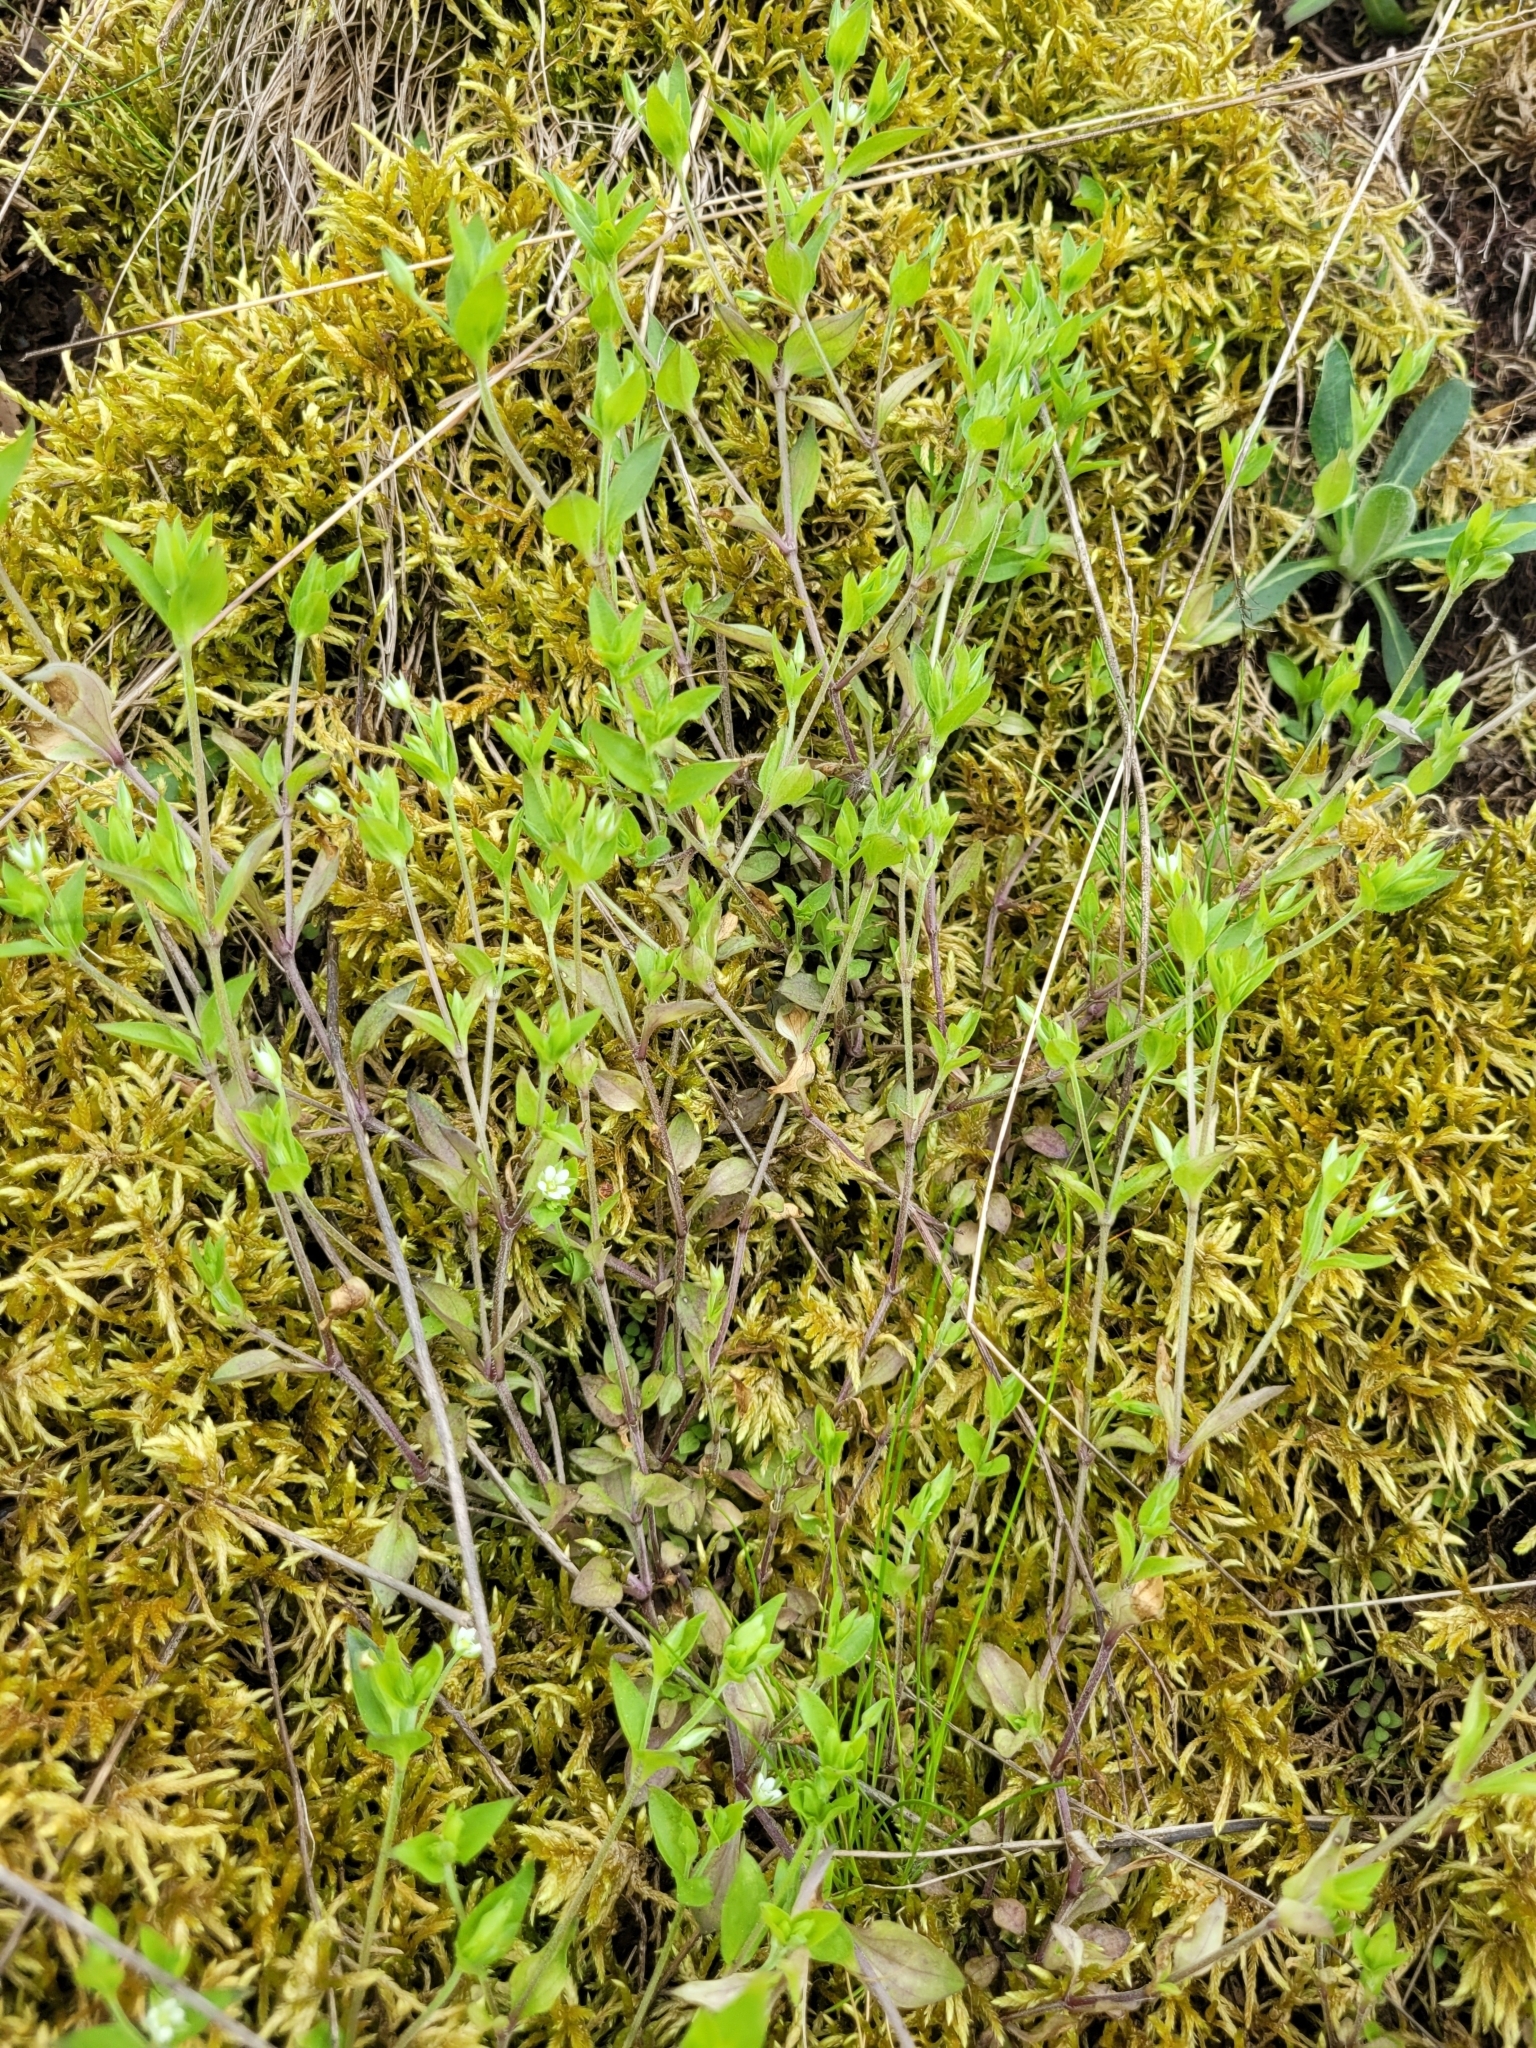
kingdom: Plantae
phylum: Tracheophyta
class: Magnoliopsida
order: Caryophyllales
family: Caryophyllaceae
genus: Moehringia
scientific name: Moehringia trinervia
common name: Three-nerved sandwort
